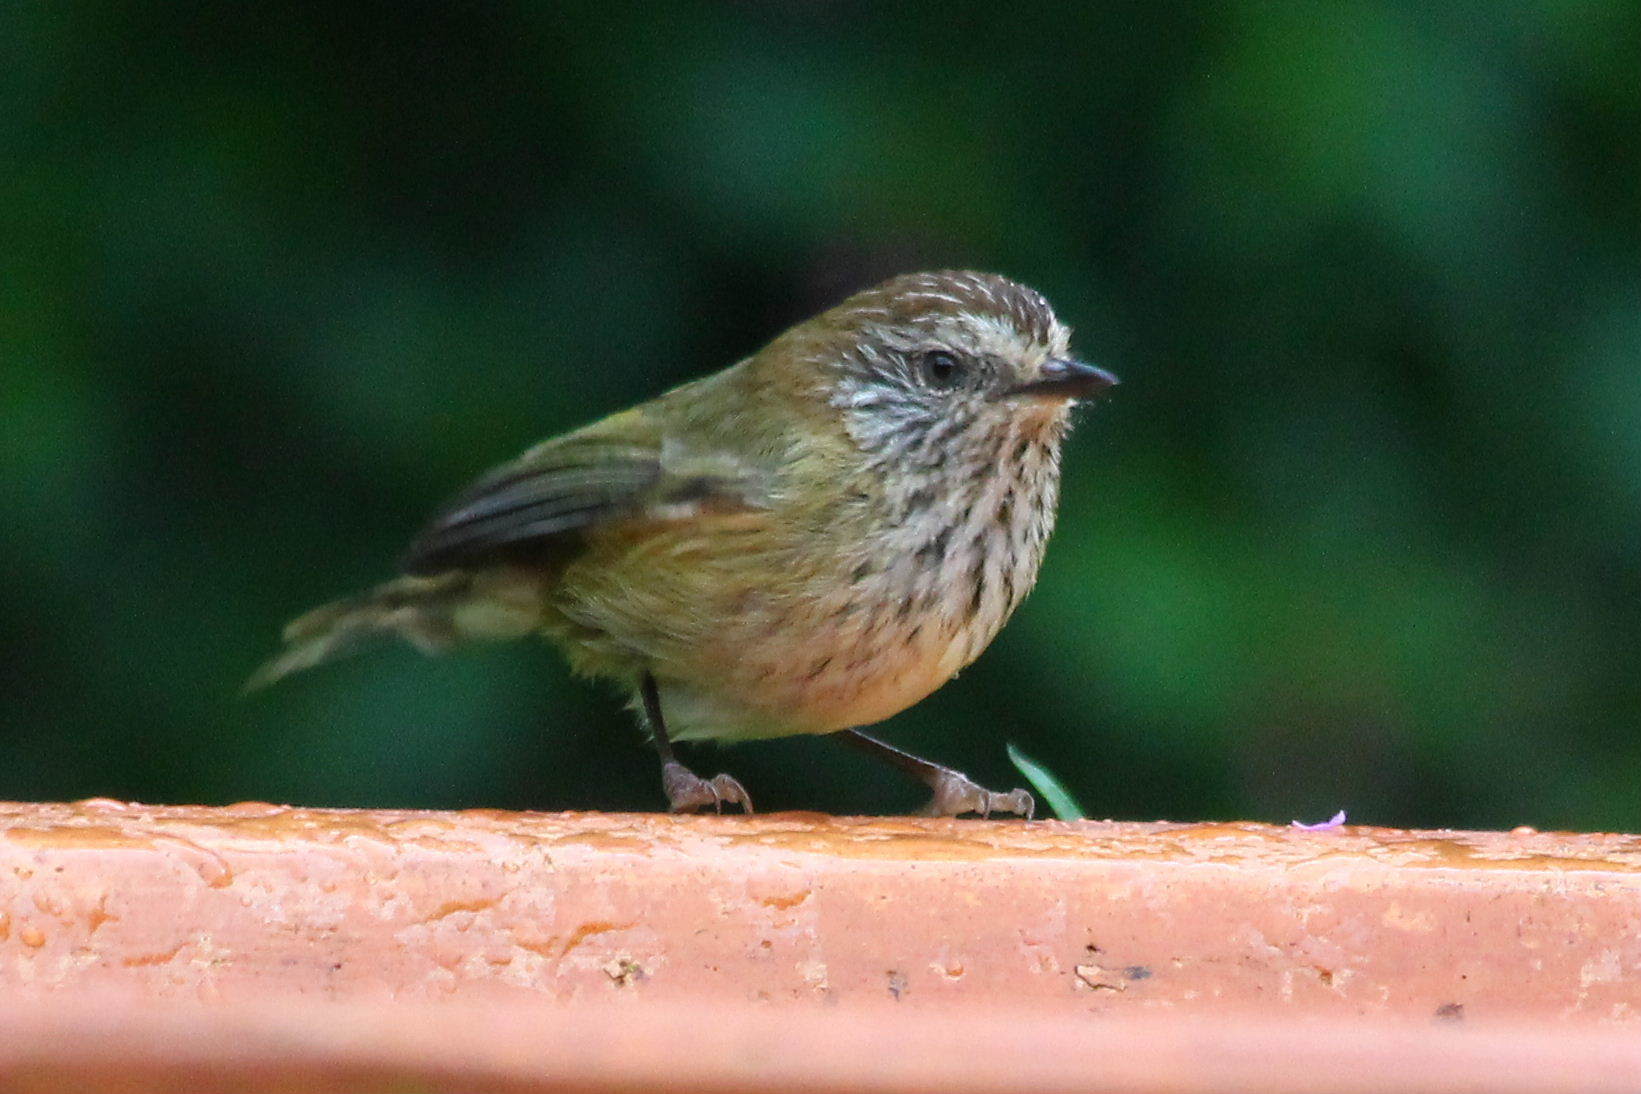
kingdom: Animalia
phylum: Chordata
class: Aves
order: Passeriformes
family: Acanthizidae
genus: Acanthiza
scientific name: Acanthiza lineata
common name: Striated thornbill
